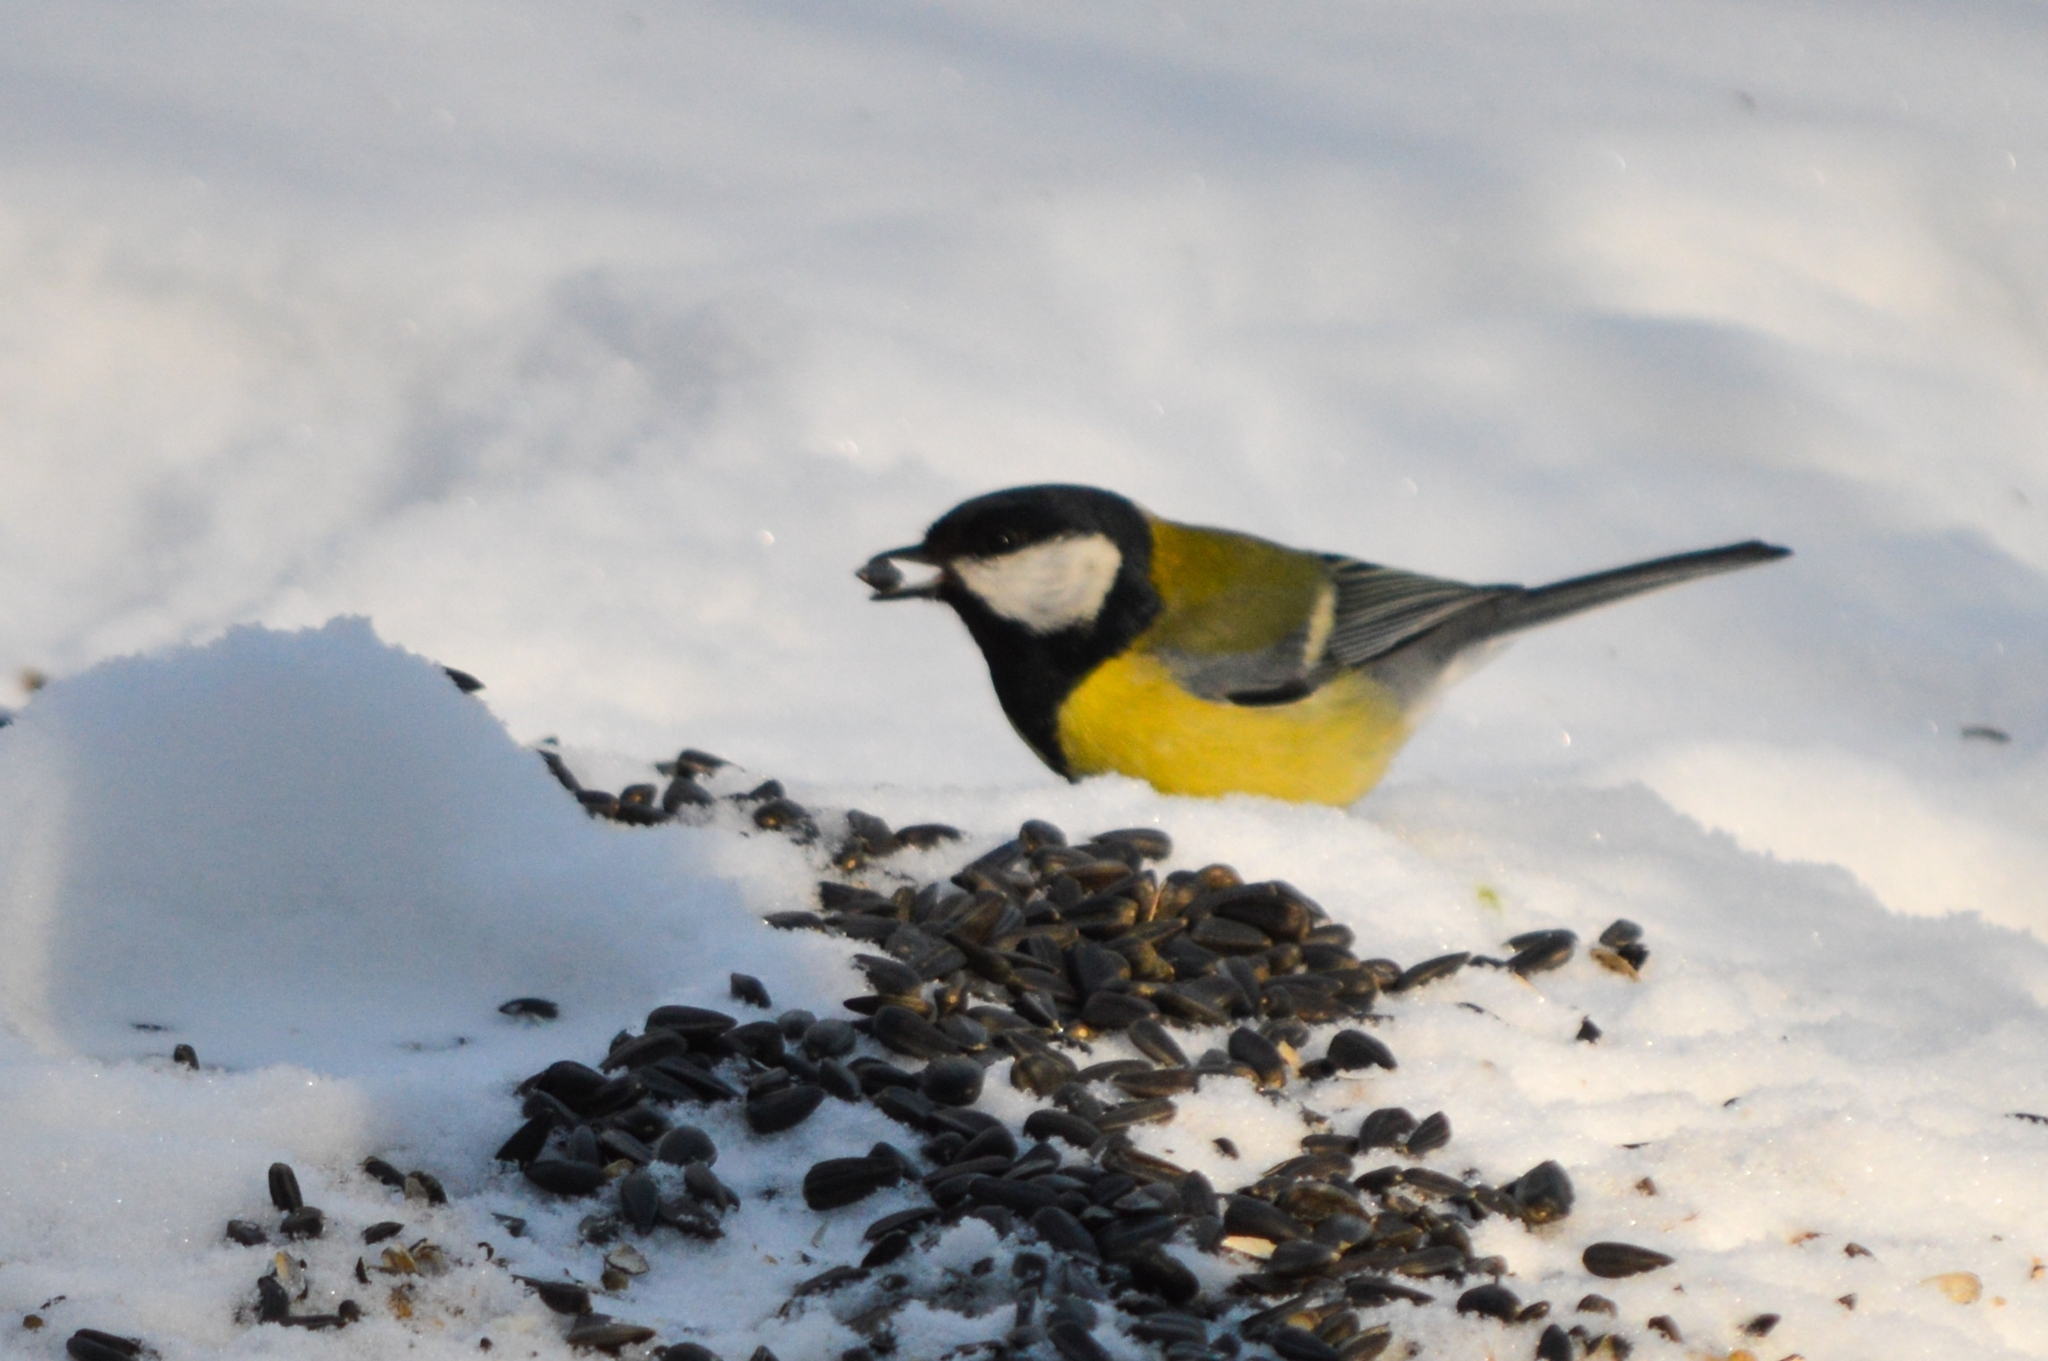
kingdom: Animalia
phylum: Chordata
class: Aves
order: Passeriformes
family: Paridae
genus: Parus
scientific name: Parus major
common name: Great tit
